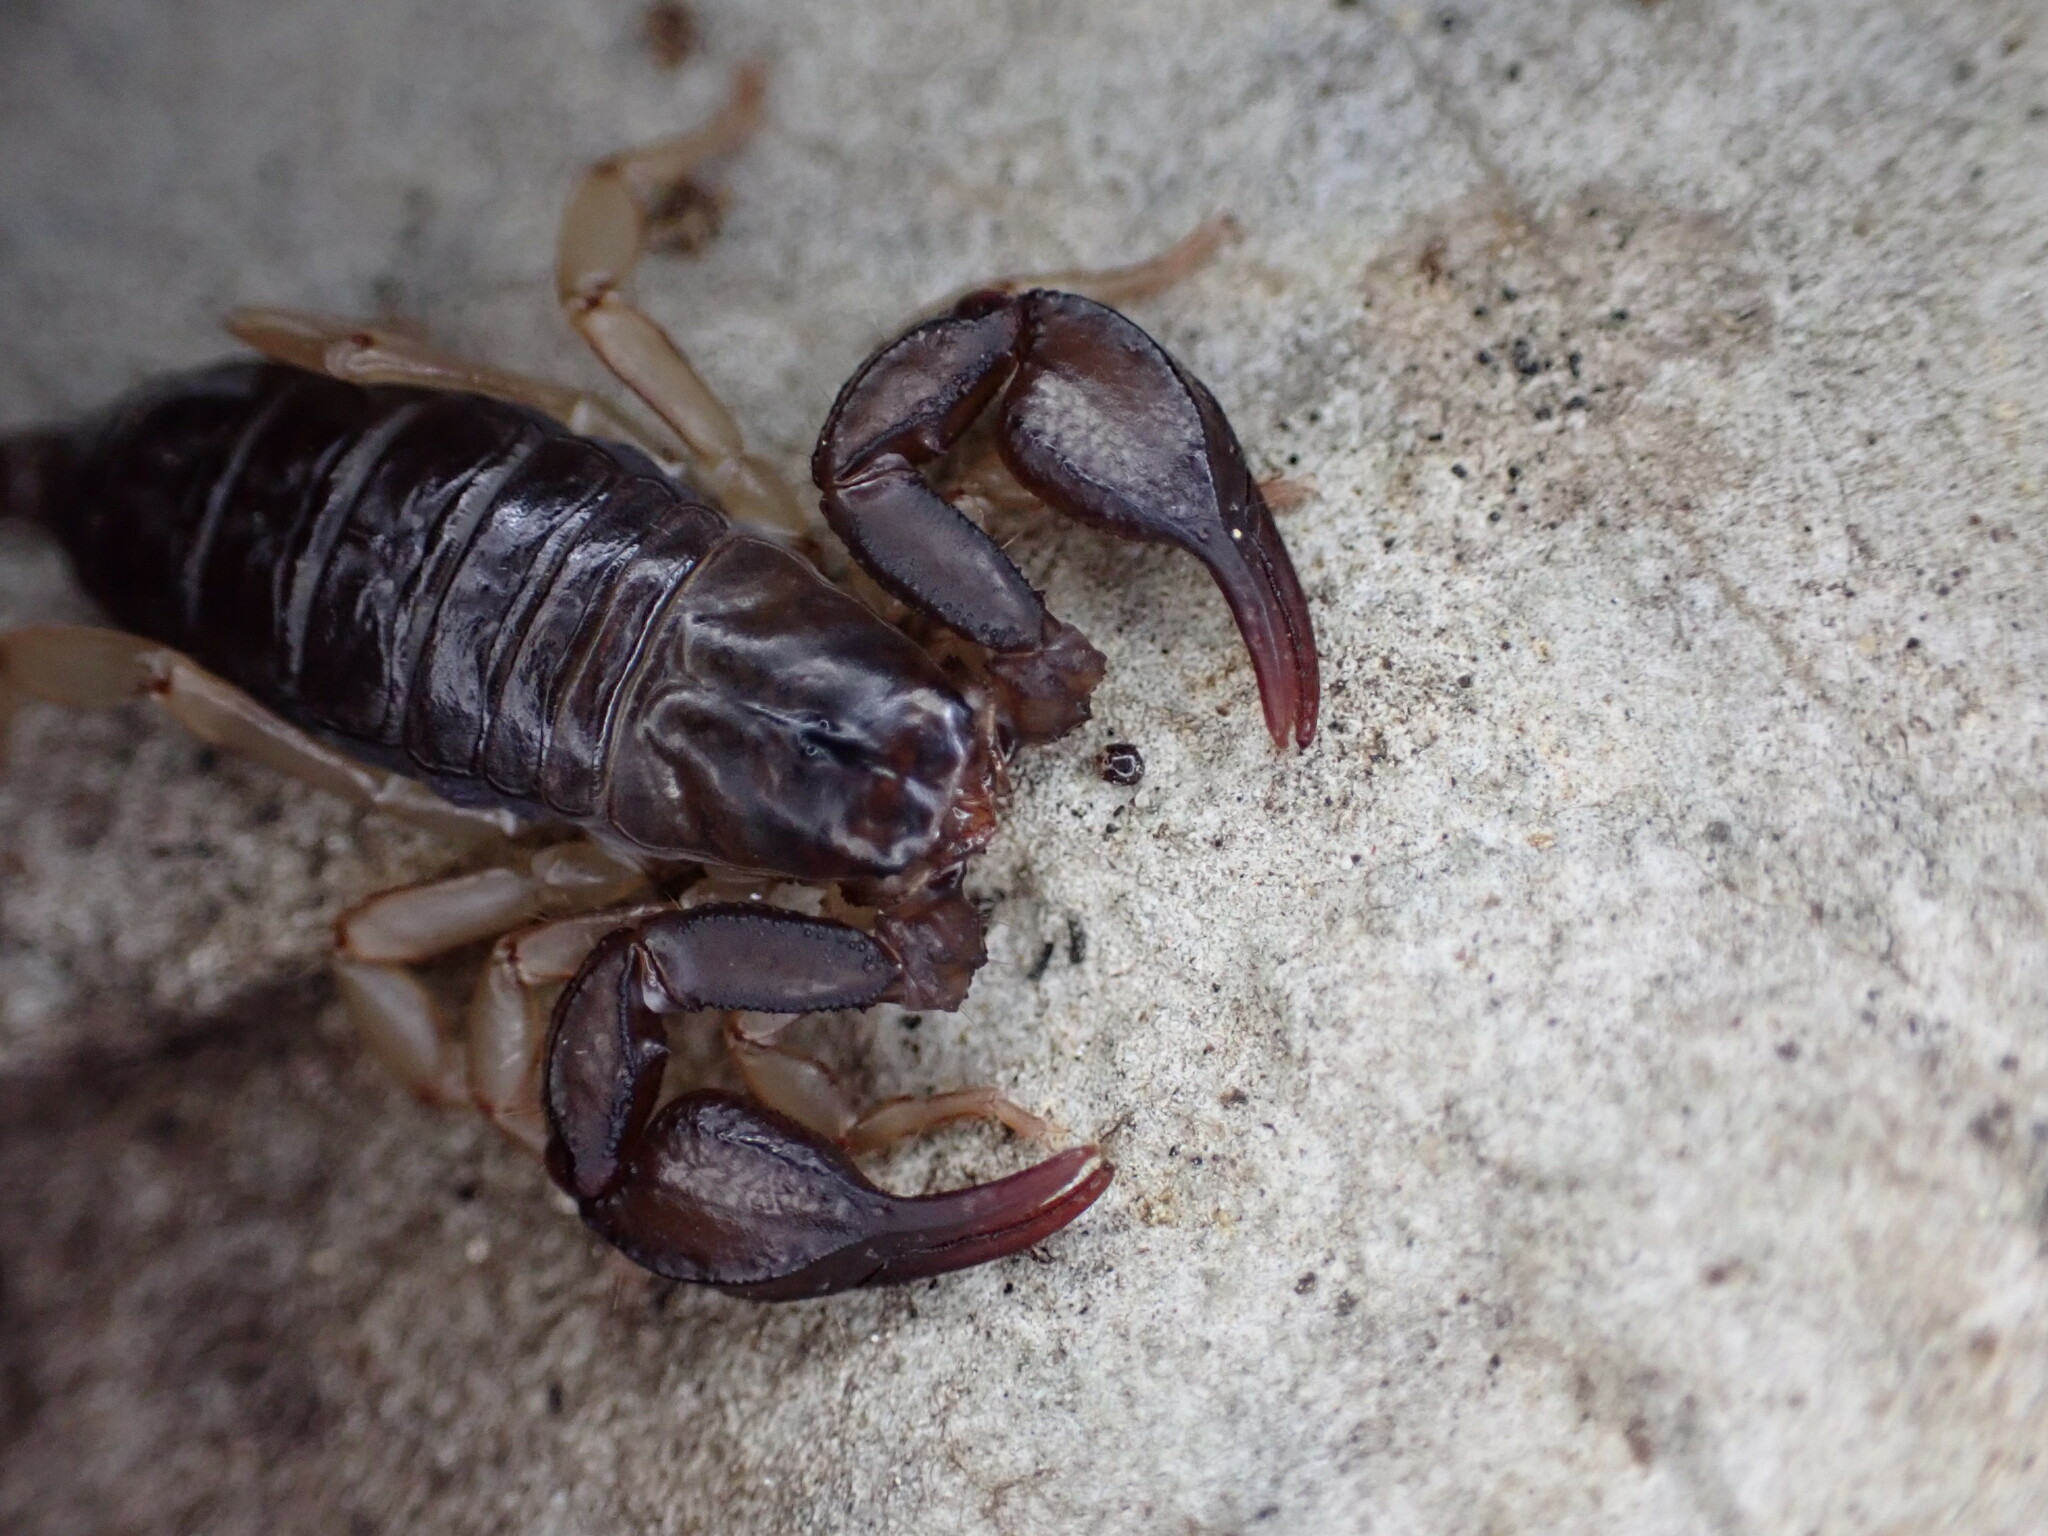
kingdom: Animalia
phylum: Arthropoda
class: Arachnida
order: Scorpiones
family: Euscorpiidae
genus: Euscorpius
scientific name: Euscorpius niciensis
